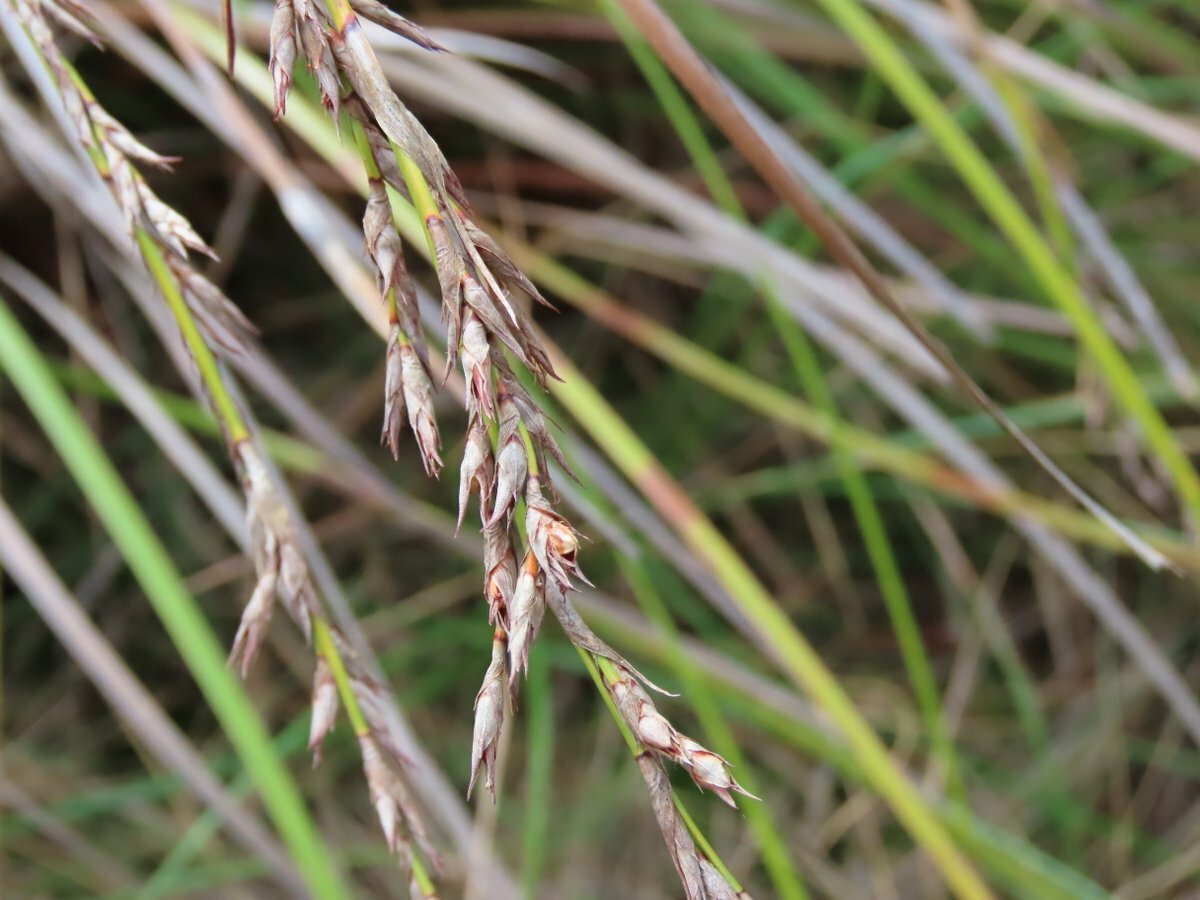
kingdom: Plantae
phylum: Tracheophyta
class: Liliopsida
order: Poales
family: Cyperaceae
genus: Lepidosperma
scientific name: Lepidosperma laterale
